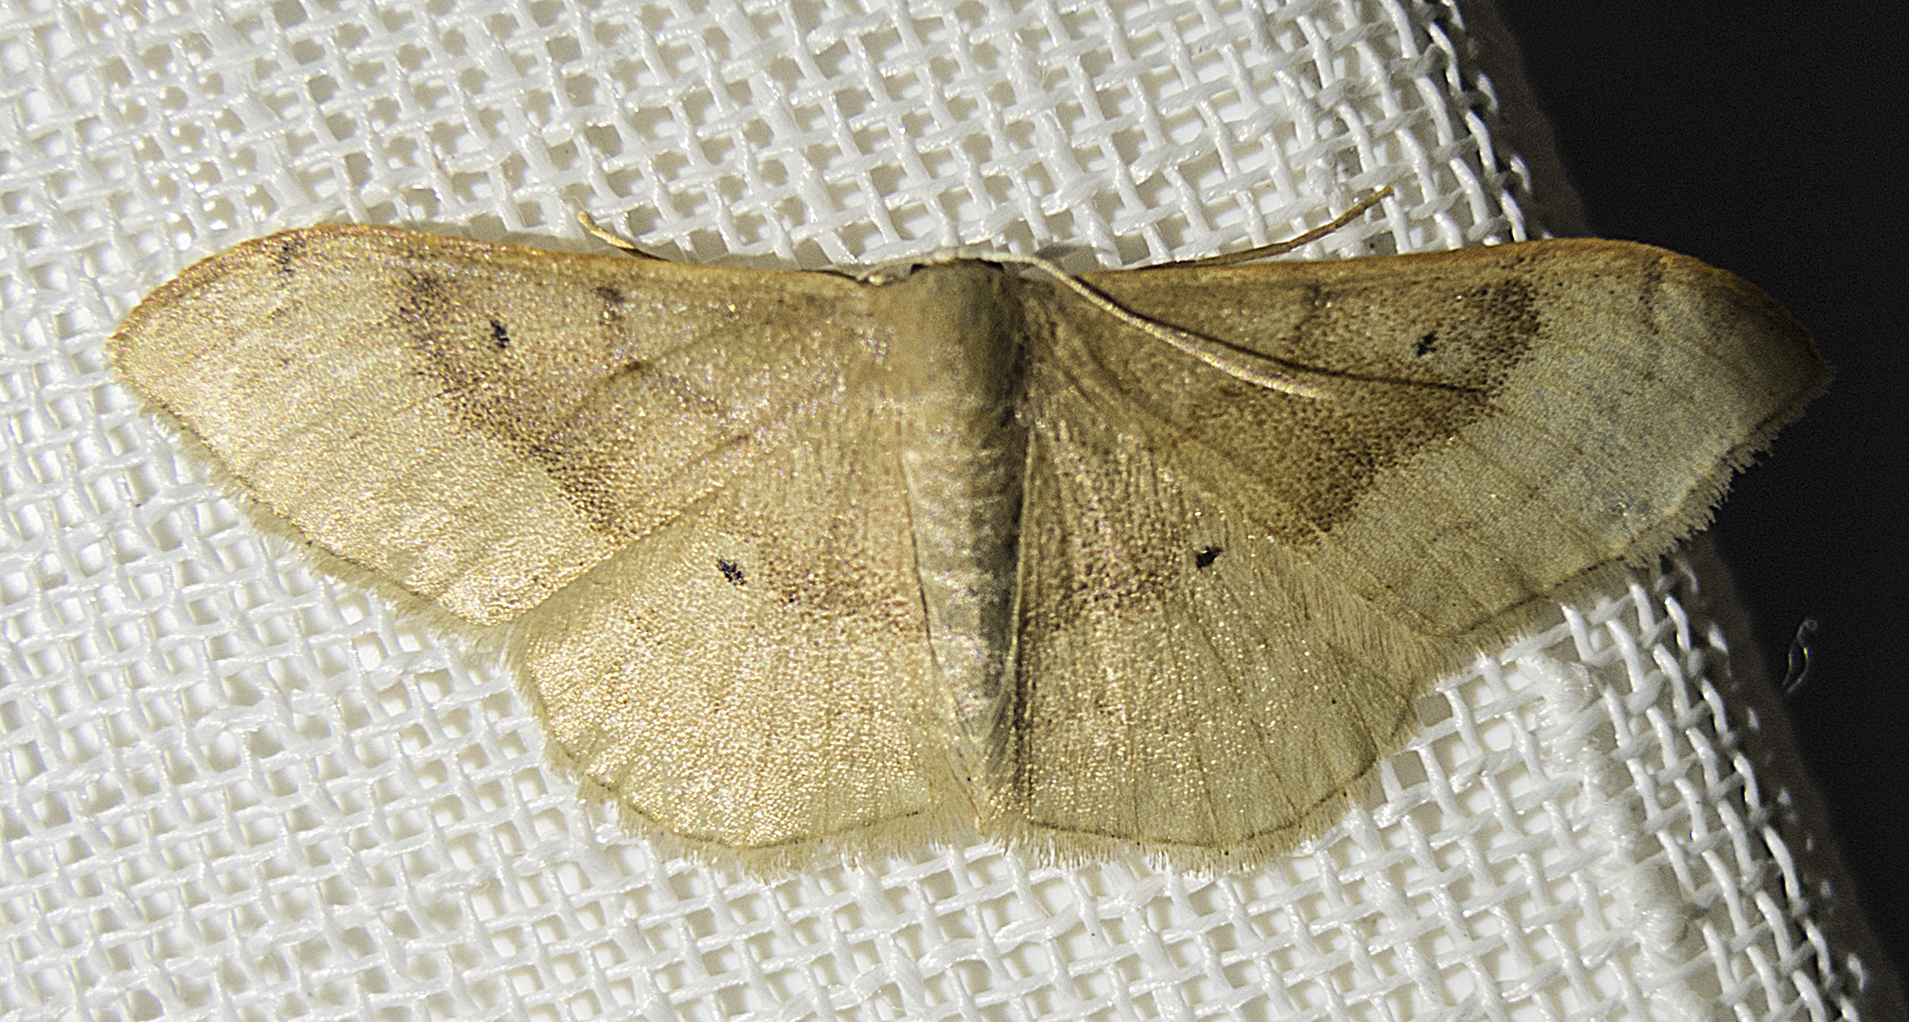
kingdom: Animalia
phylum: Arthropoda
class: Insecta
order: Lepidoptera
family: Geometridae
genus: Idaea
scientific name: Idaea degeneraria
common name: Portland ribbon wave
